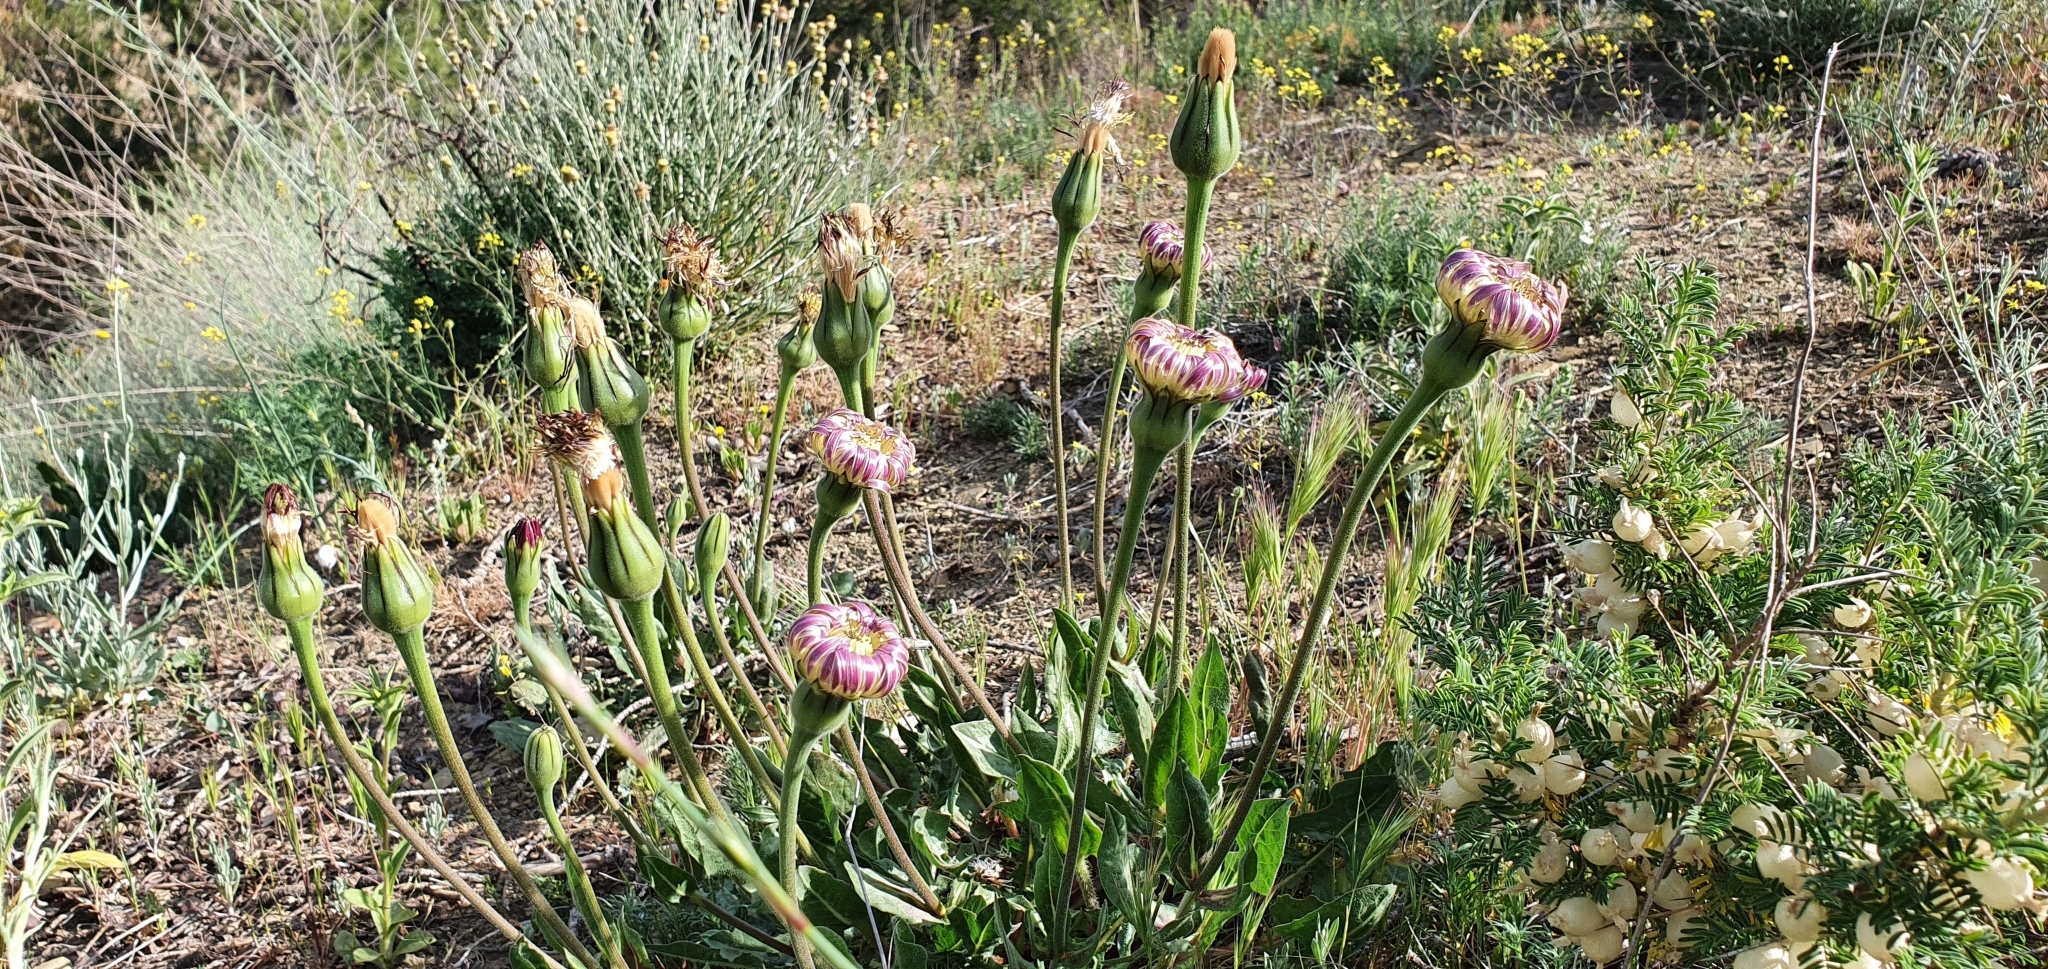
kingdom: Plantae
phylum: Tracheophyta
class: Magnoliopsida
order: Asterales
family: Asteraceae
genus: Urospermum
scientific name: Urospermum dalechampii
